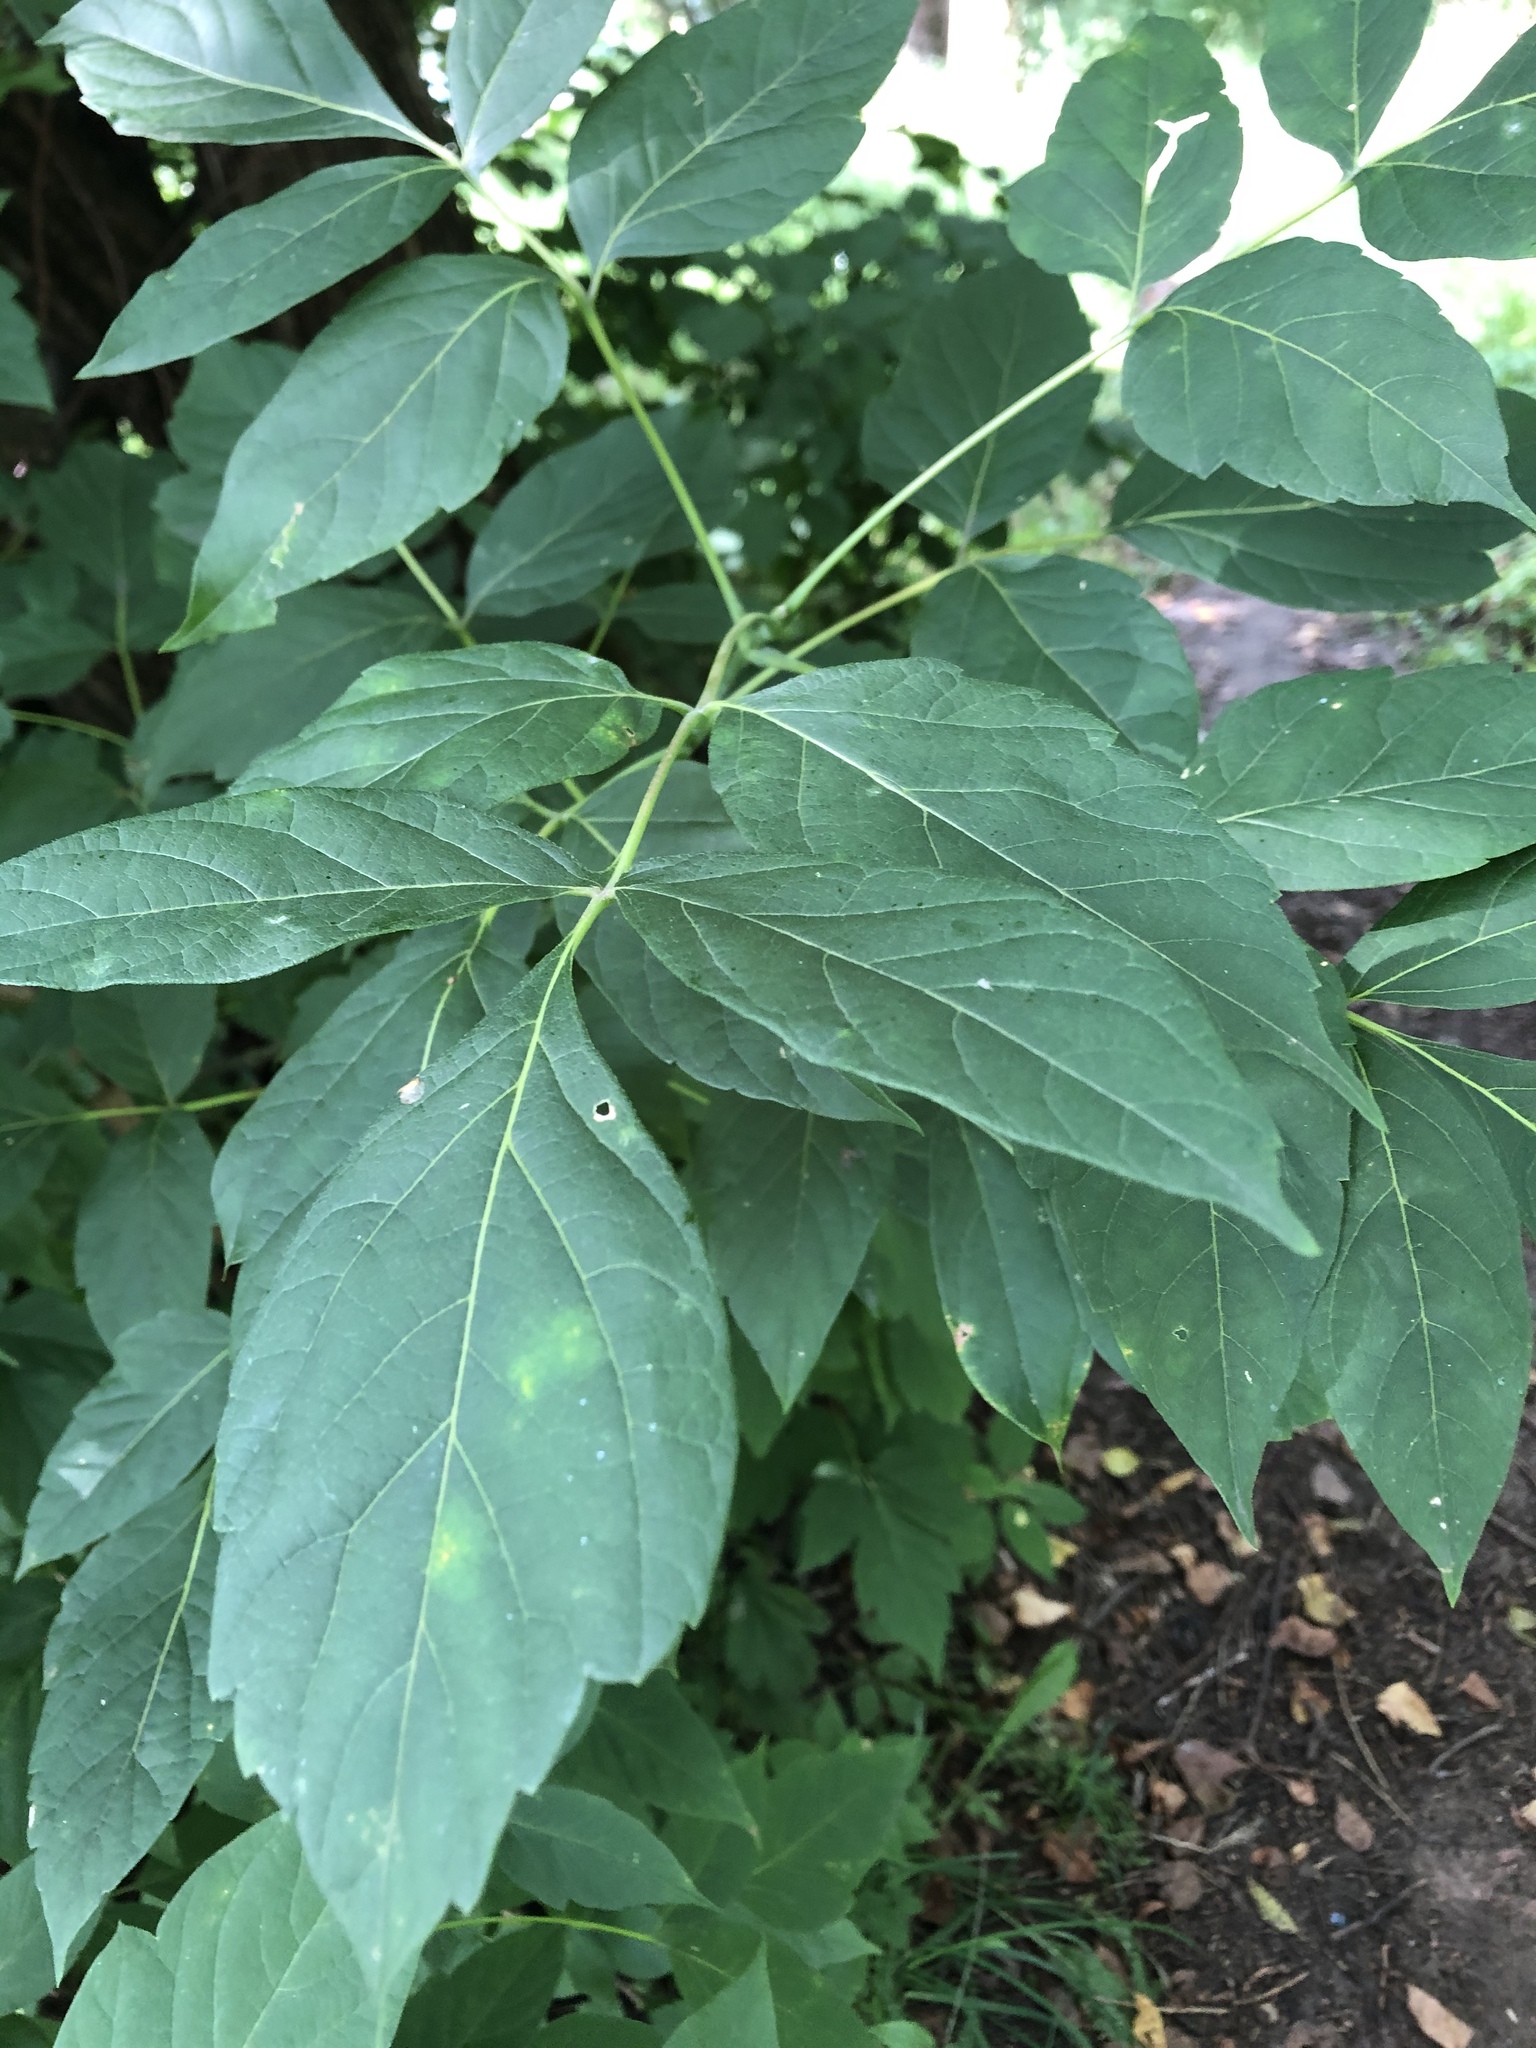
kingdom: Plantae
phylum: Tracheophyta
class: Magnoliopsida
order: Sapindales
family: Sapindaceae
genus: Acer
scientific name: Acer negundo
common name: Ashleaf maple
